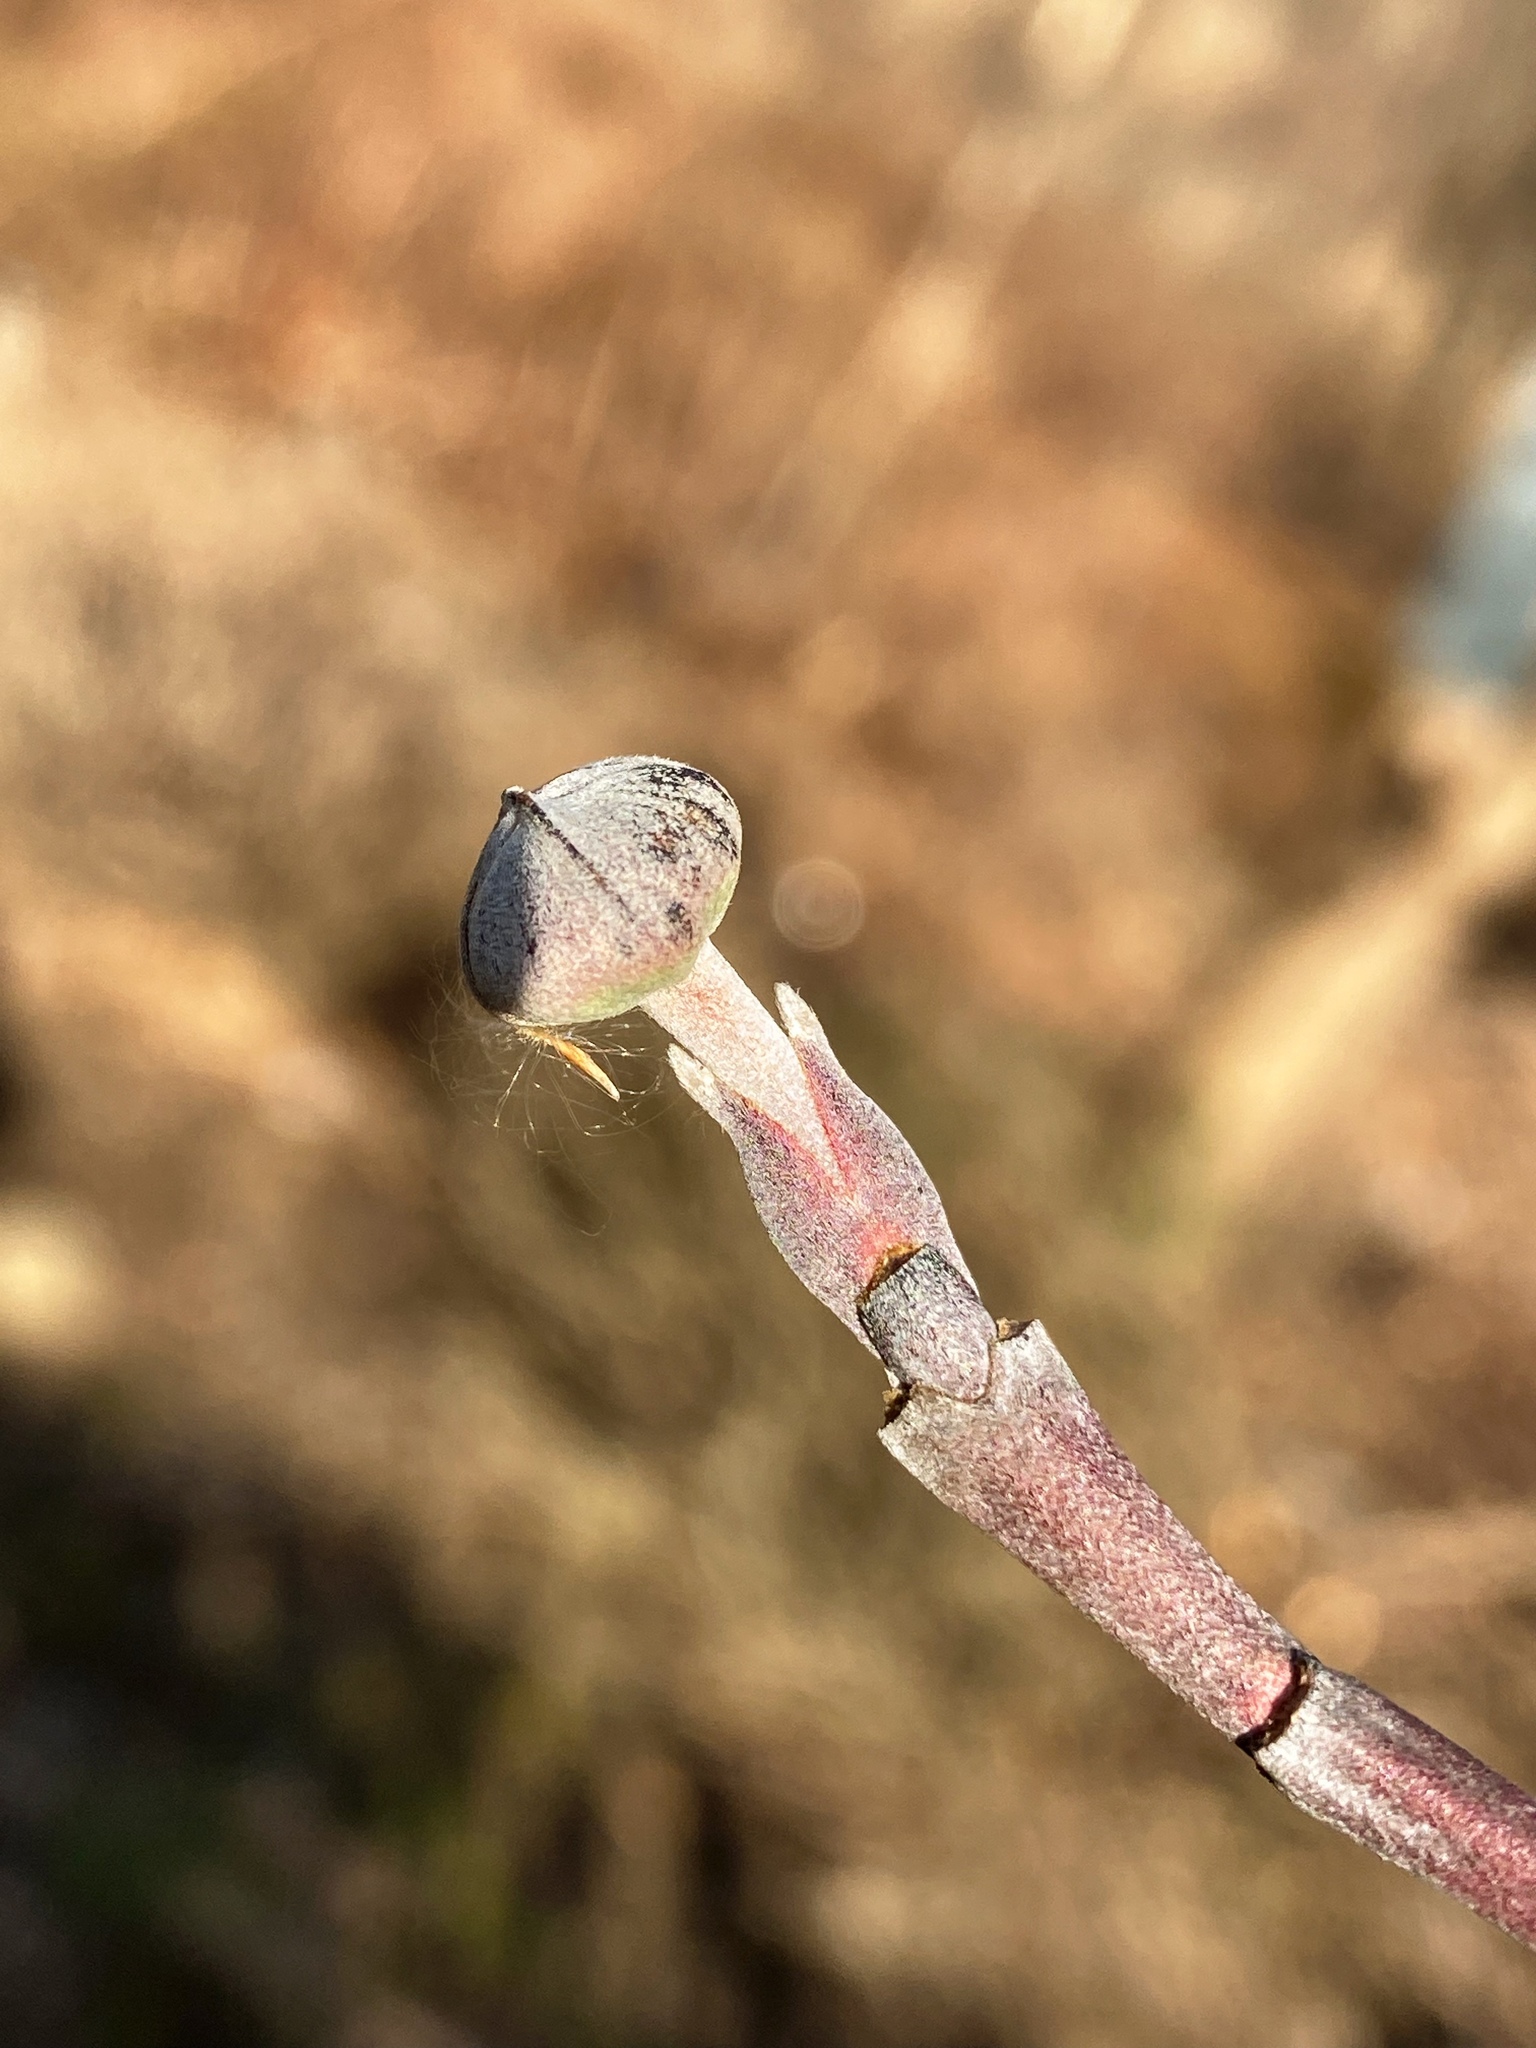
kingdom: Plantae
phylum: Tracheophyta
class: Magnoliopsida
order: Cornales
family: Cornaceae
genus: Cornus
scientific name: Cornus florida
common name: Flowering dogwood
